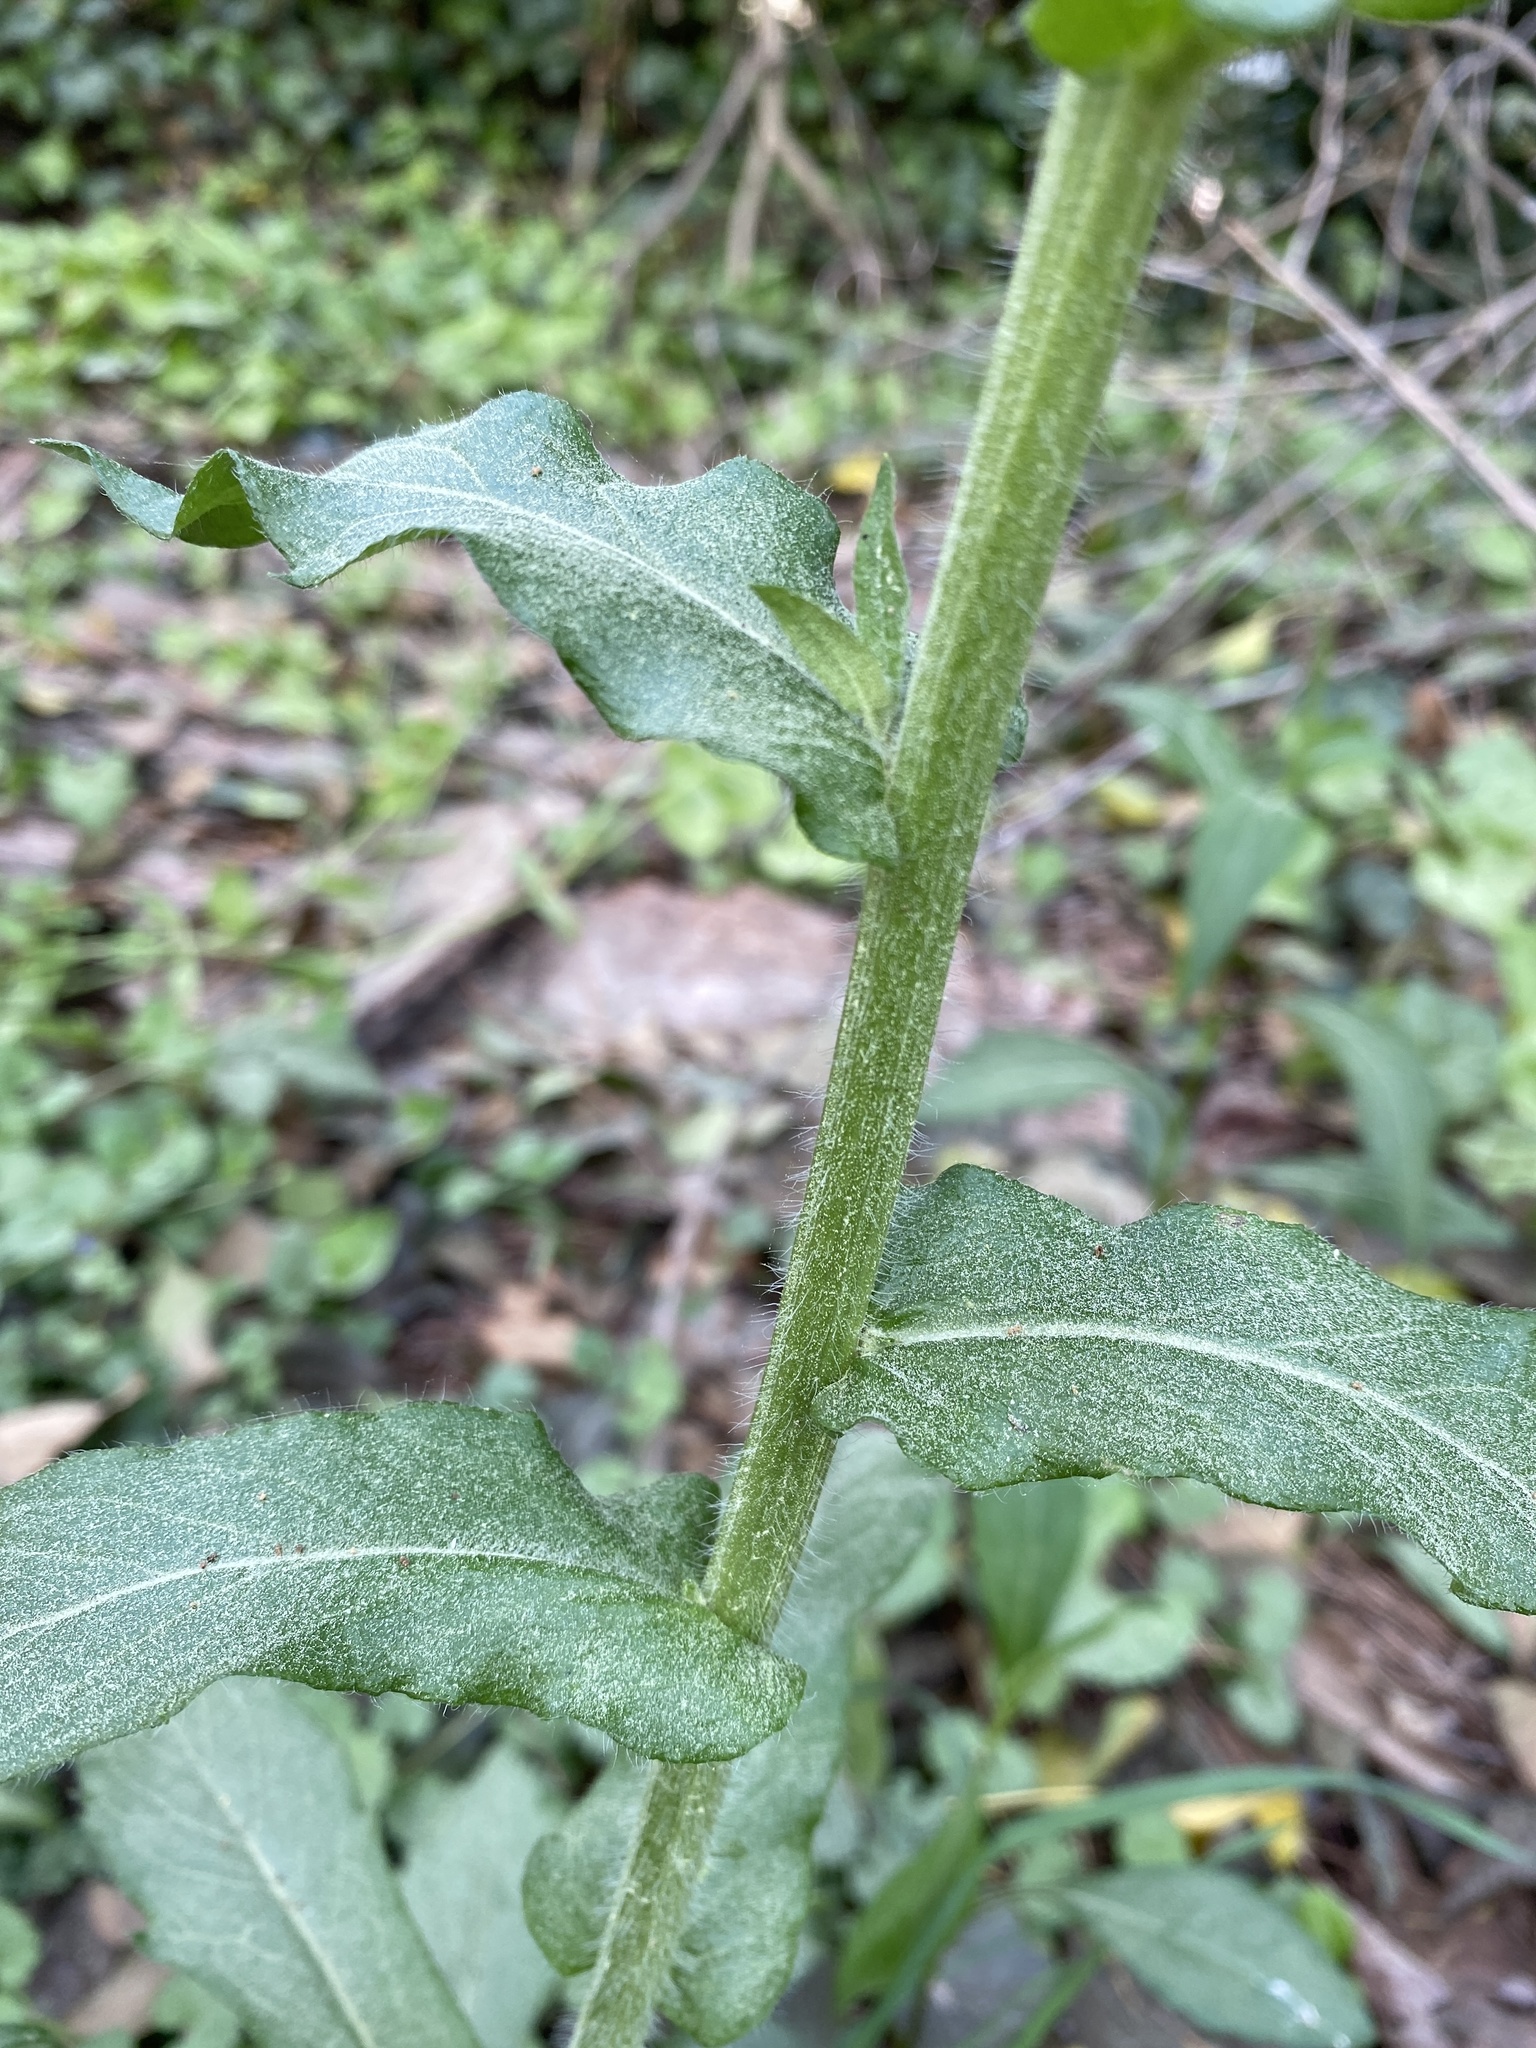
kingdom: Plantae
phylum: Tracheophyta
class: Magnoliopsida
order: Asterales
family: Asteraceae
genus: Erigeron
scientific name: Erigeron philadelphicus
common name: Robin's-plantain
